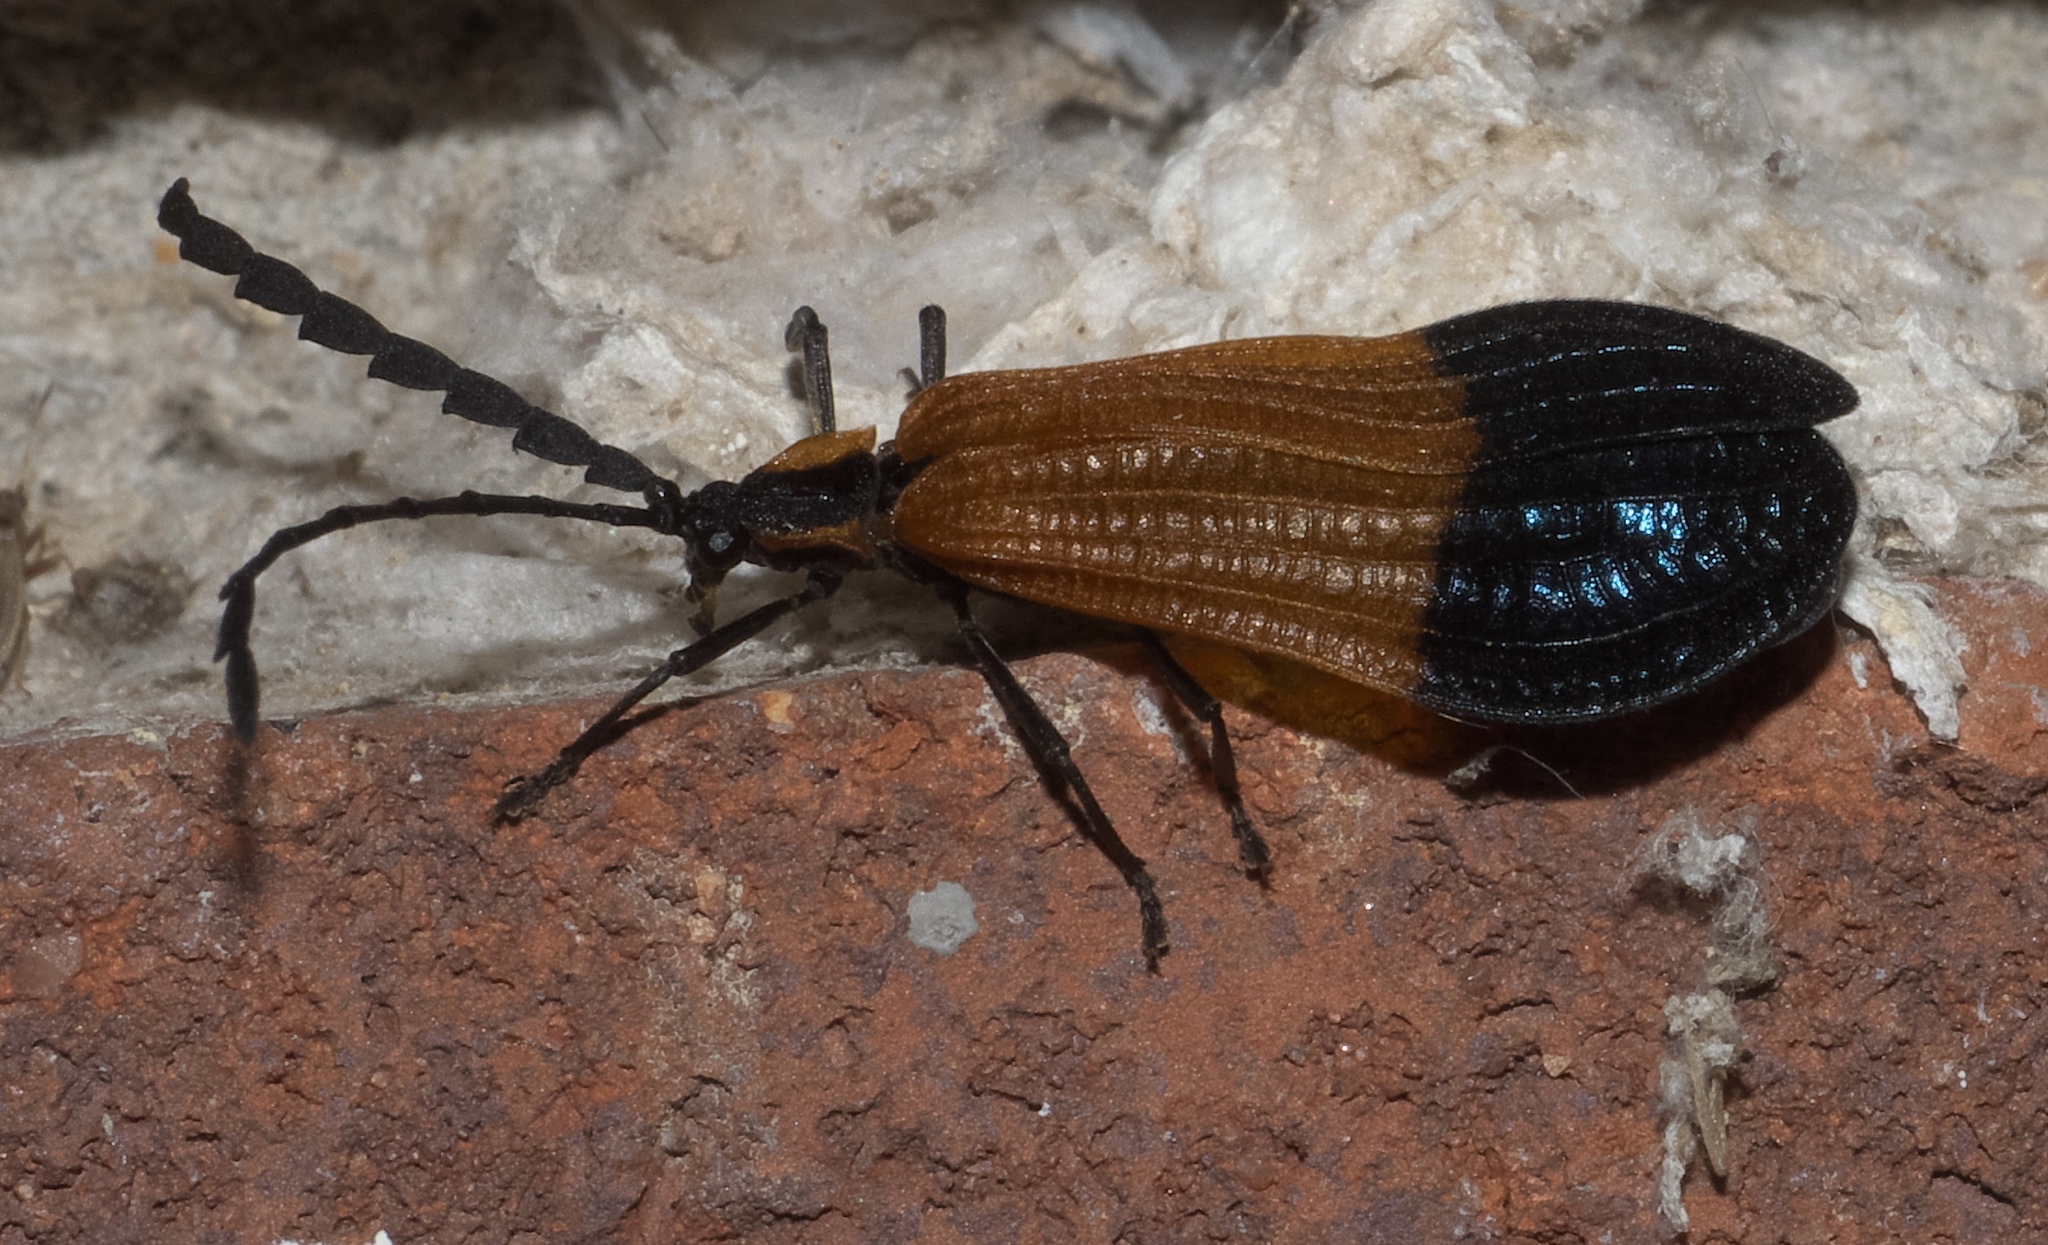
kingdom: Animalia
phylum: Arthropoda
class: Insecta
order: Coleoptera
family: Lycidae
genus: Calopteron
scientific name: Calopteron terminale
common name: End band net-winged beetle
